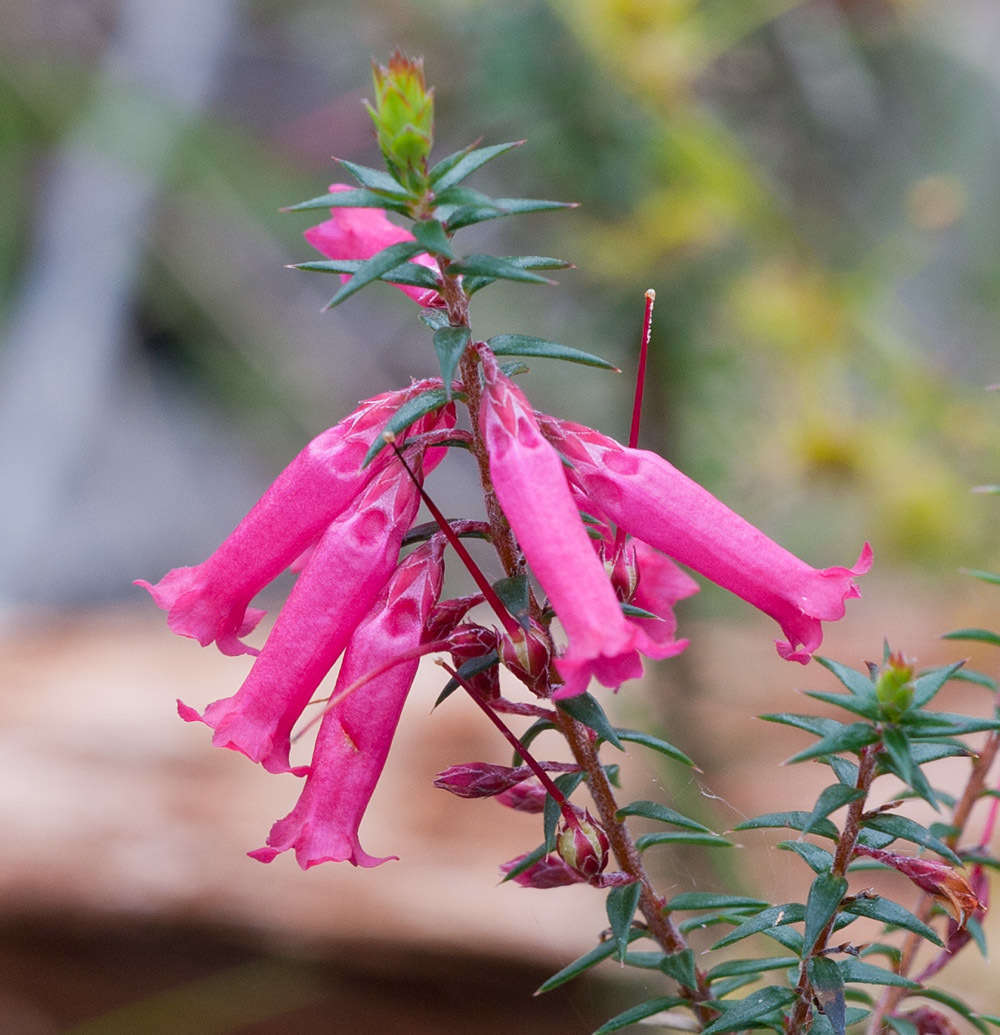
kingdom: Plantae
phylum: Tracheophyta
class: Magnoliopsida
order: Ericales
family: Ericaceae
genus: Epacris
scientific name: Epacris impressa
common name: Common-heath
